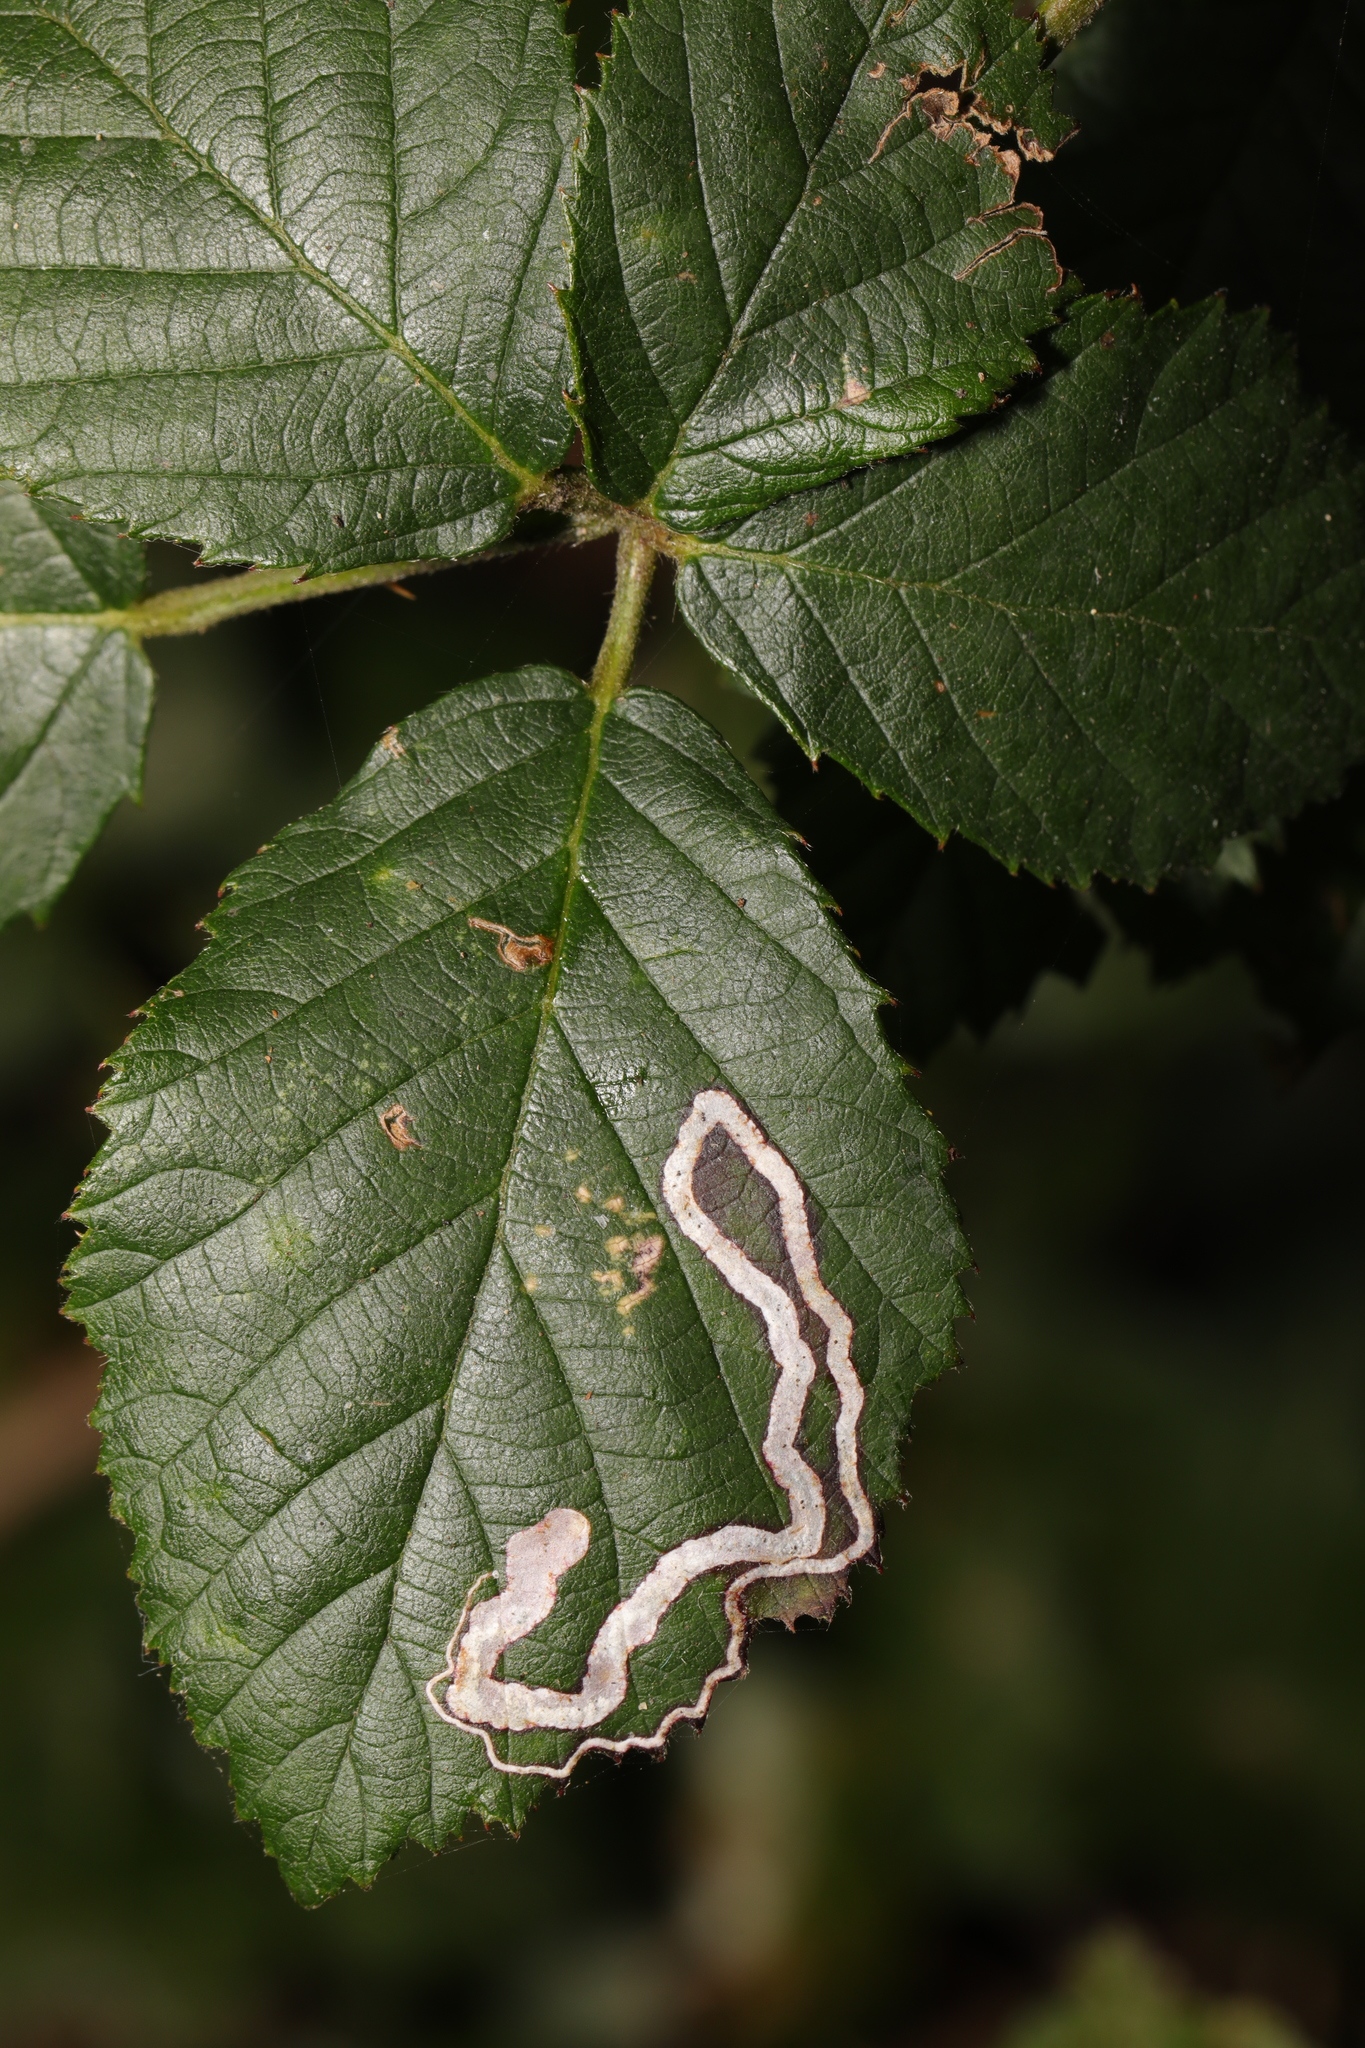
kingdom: Animalia
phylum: Arthropoda
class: Insecta
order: Lepidoptera
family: Nepticulidae
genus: Stigmella
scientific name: Stigmella aurella
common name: Golden pigmy
